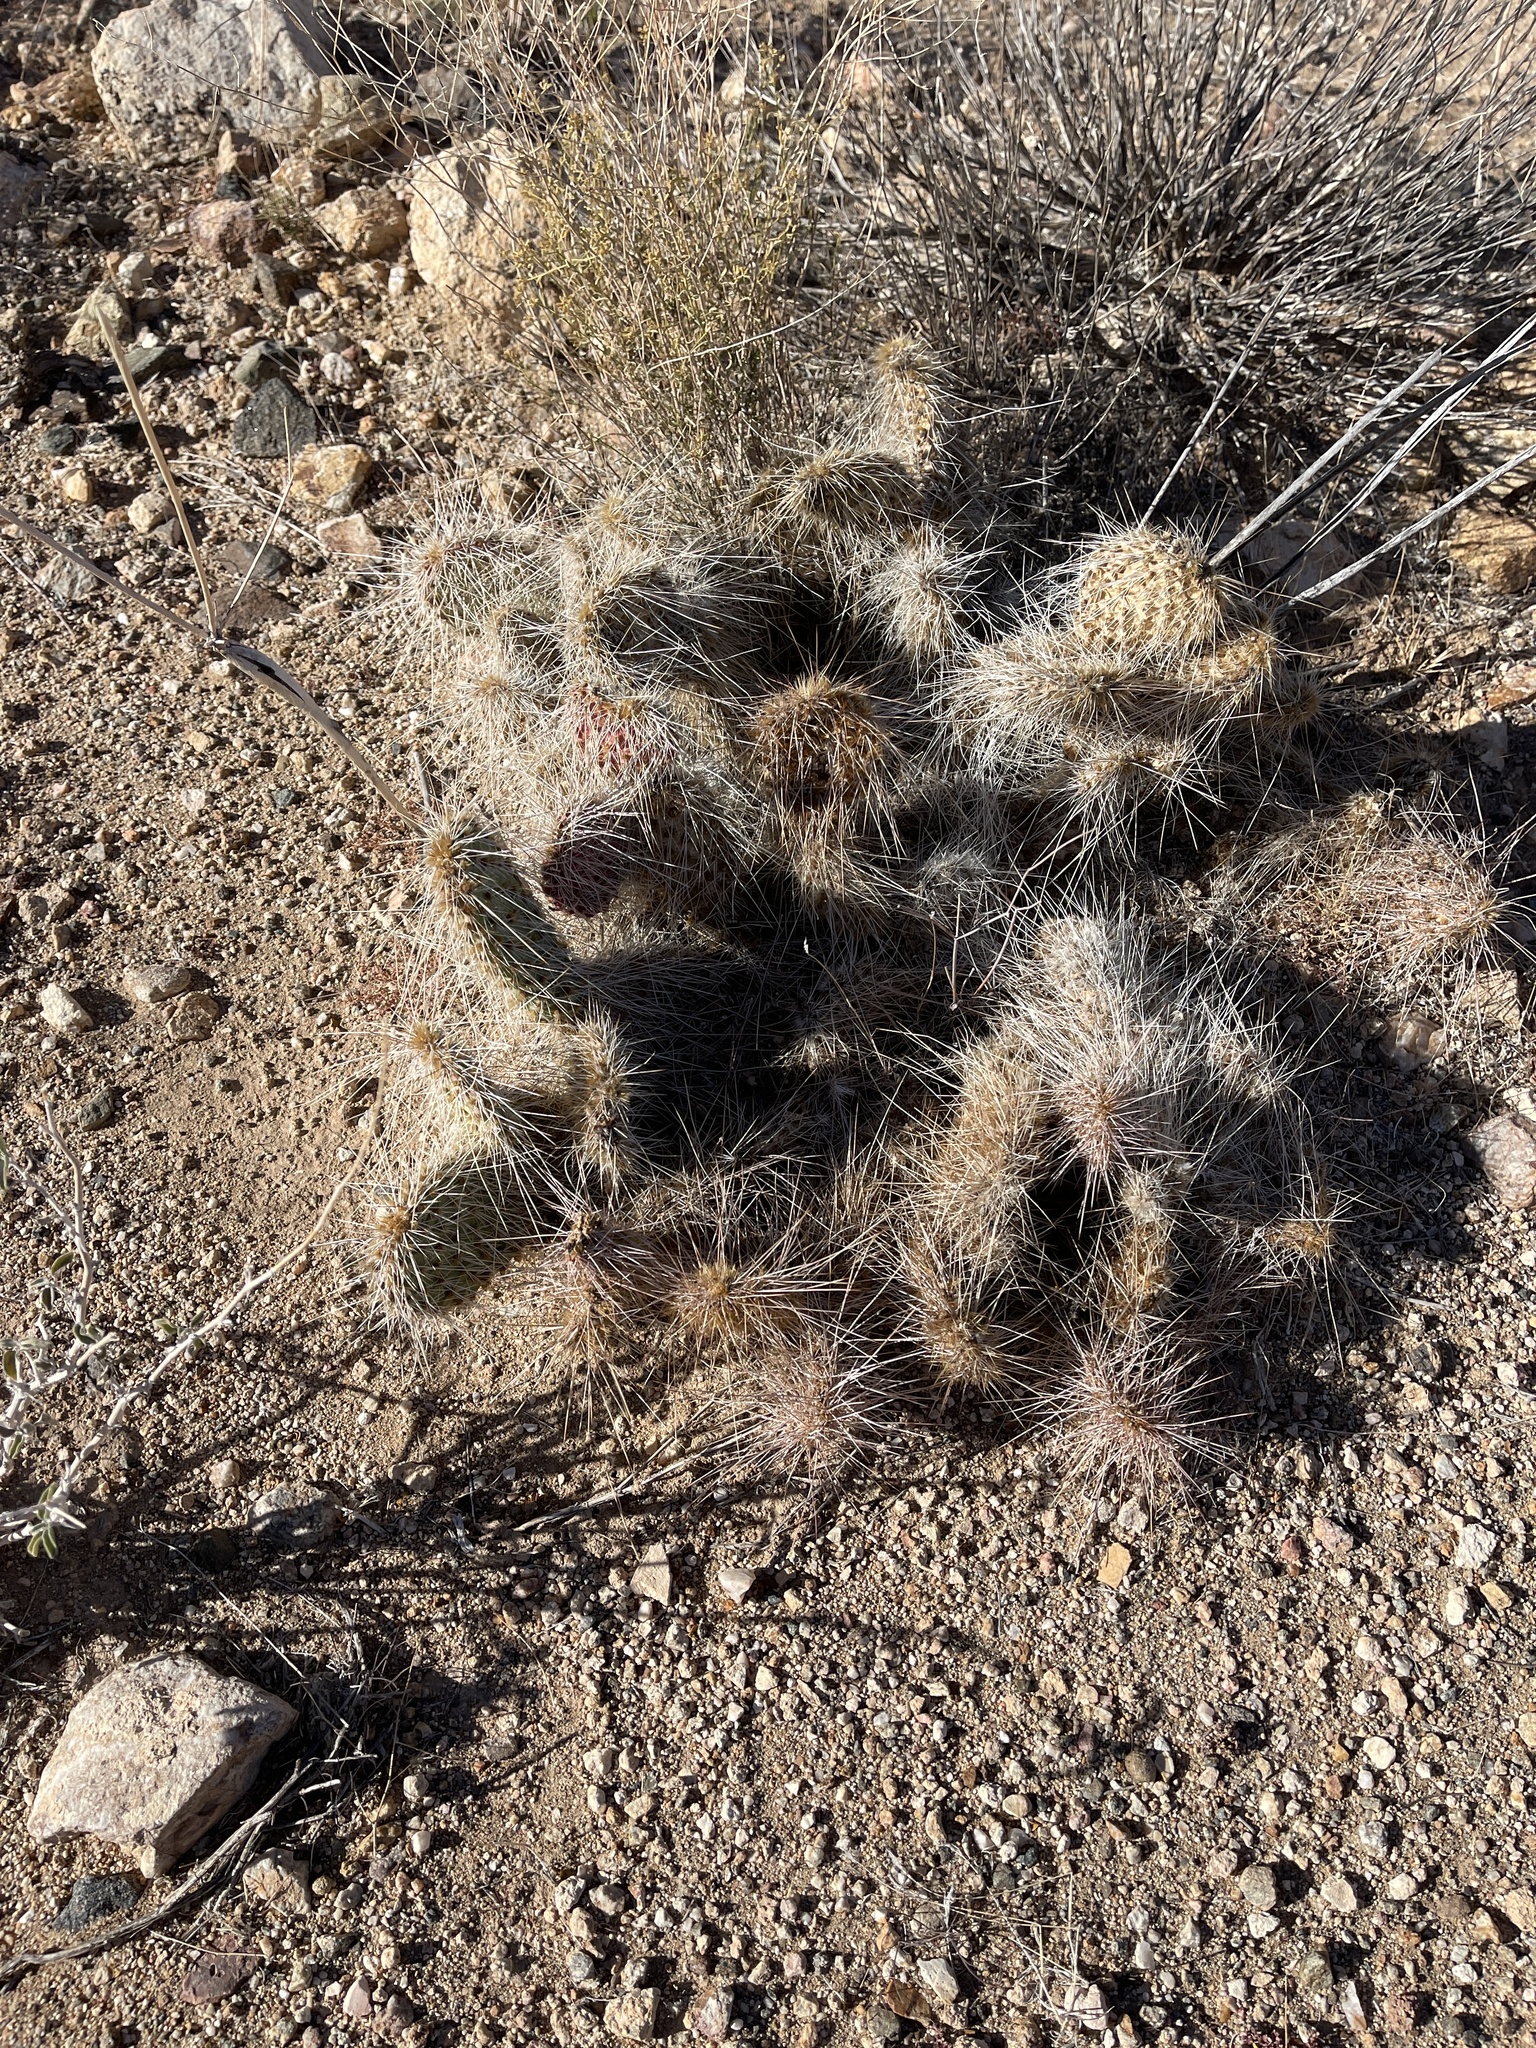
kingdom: Plantae
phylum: Tracheophyta
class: Magnoliopsida
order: Caryophyllales
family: Cactaceae
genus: Opuntia
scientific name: Opuntia polyacantha
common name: Plains prickly-pear
